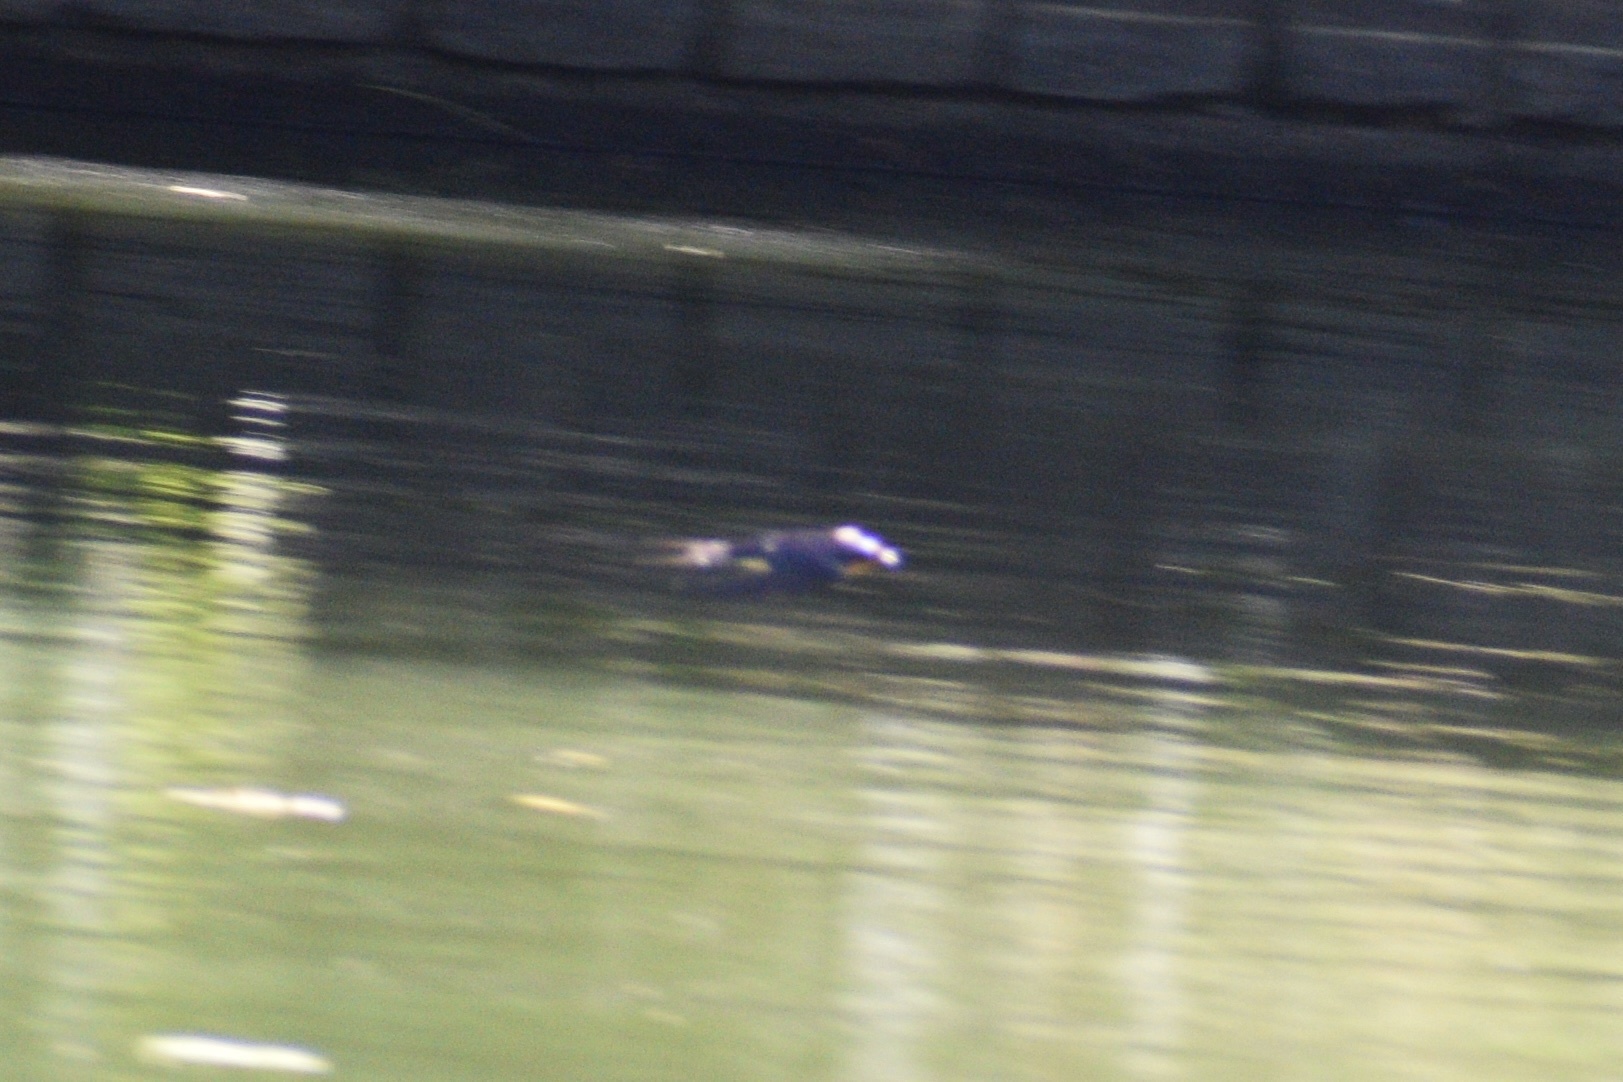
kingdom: Animalia
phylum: Chordata
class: Aves
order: Passeriformes
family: Hirundinidae
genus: Hirundo
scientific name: Hirundo rustica
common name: Barn swallow
